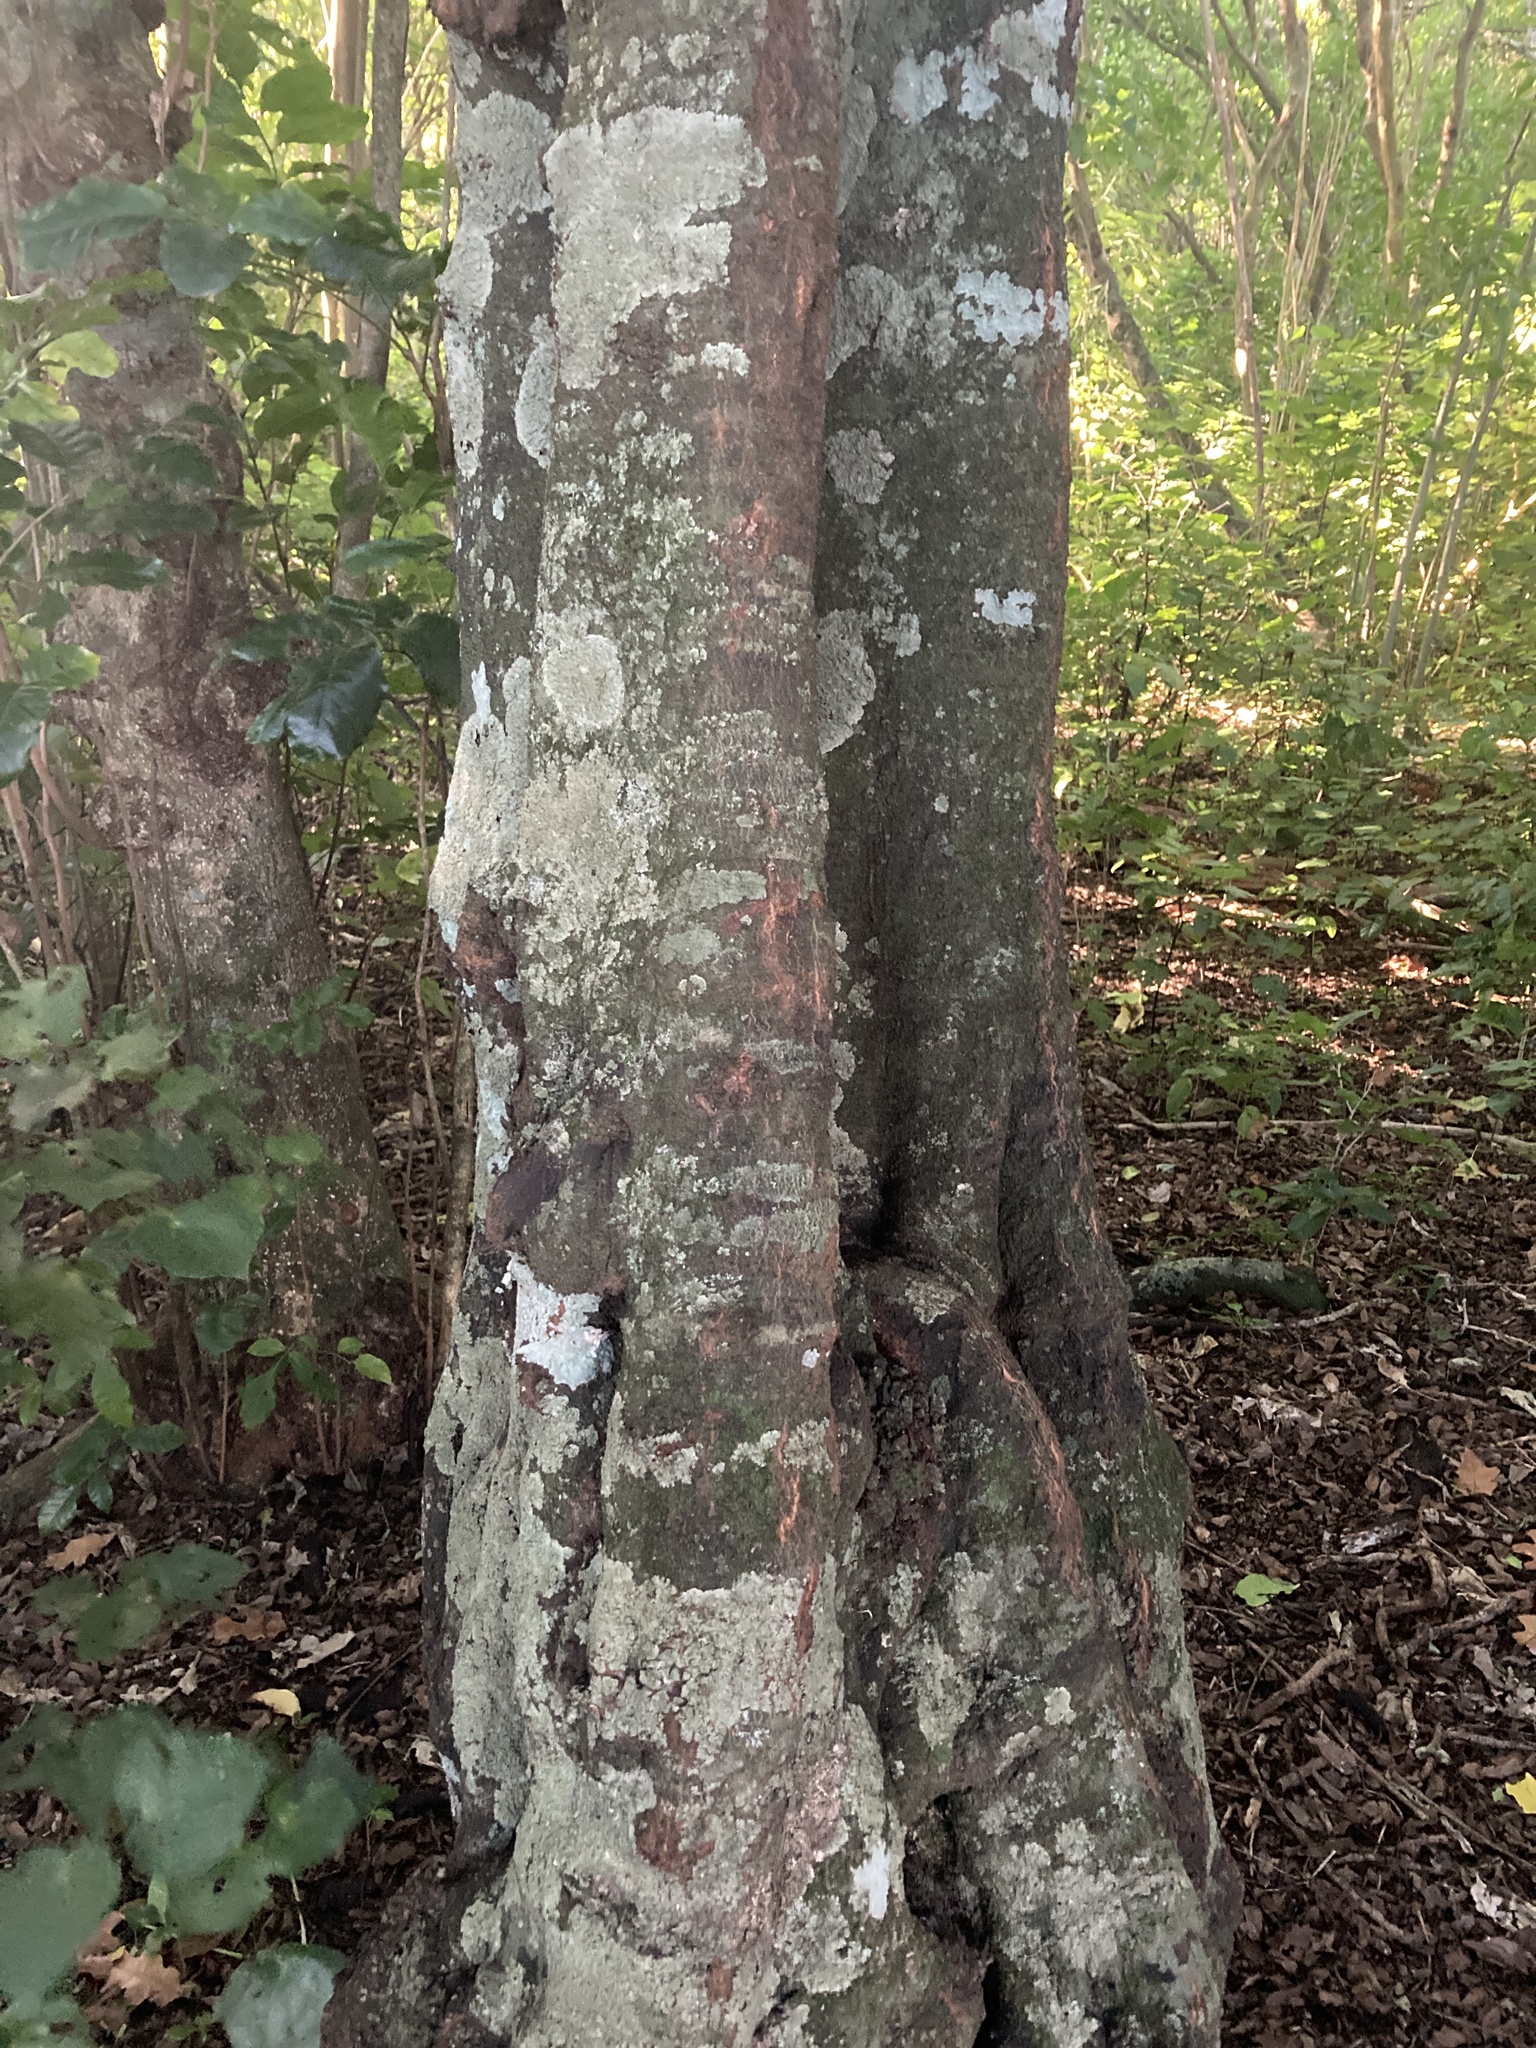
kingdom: Plantae
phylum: Tracheophyta
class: Magnoliopsida
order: Sapindales
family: Sapindaceae
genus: Alectryon
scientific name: Alectryon excelsus
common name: Three kings titoki
